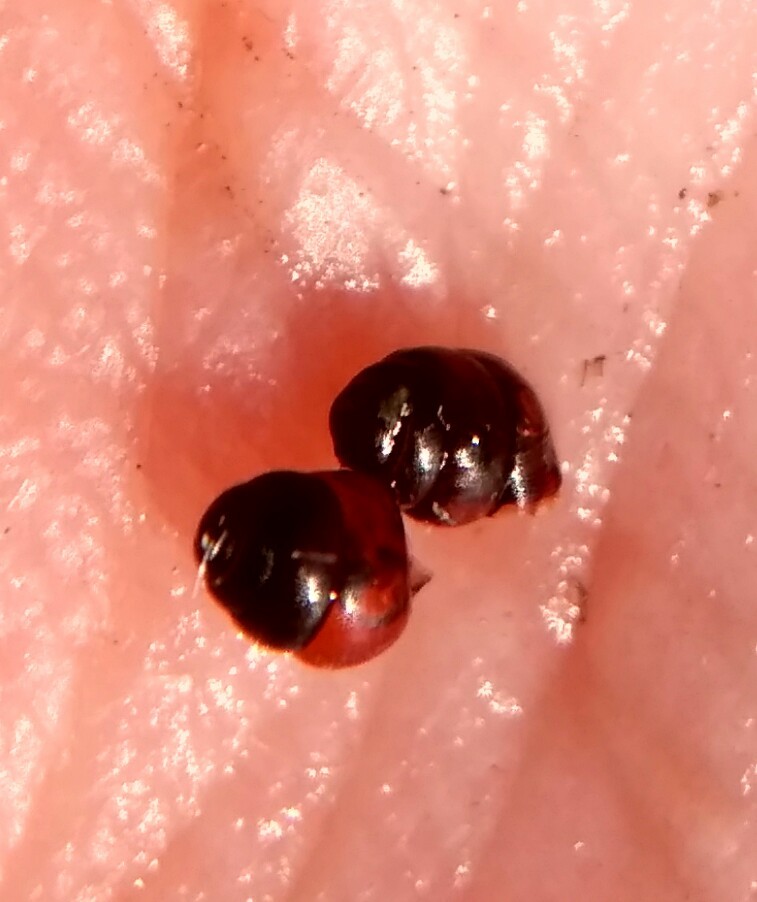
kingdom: Animalia
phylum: Mollusca
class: Gastropoda
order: Stylommatophora
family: Vertiginidae
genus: Vertigo
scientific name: Vertigo antivertigo
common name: Marsh whorl snail
